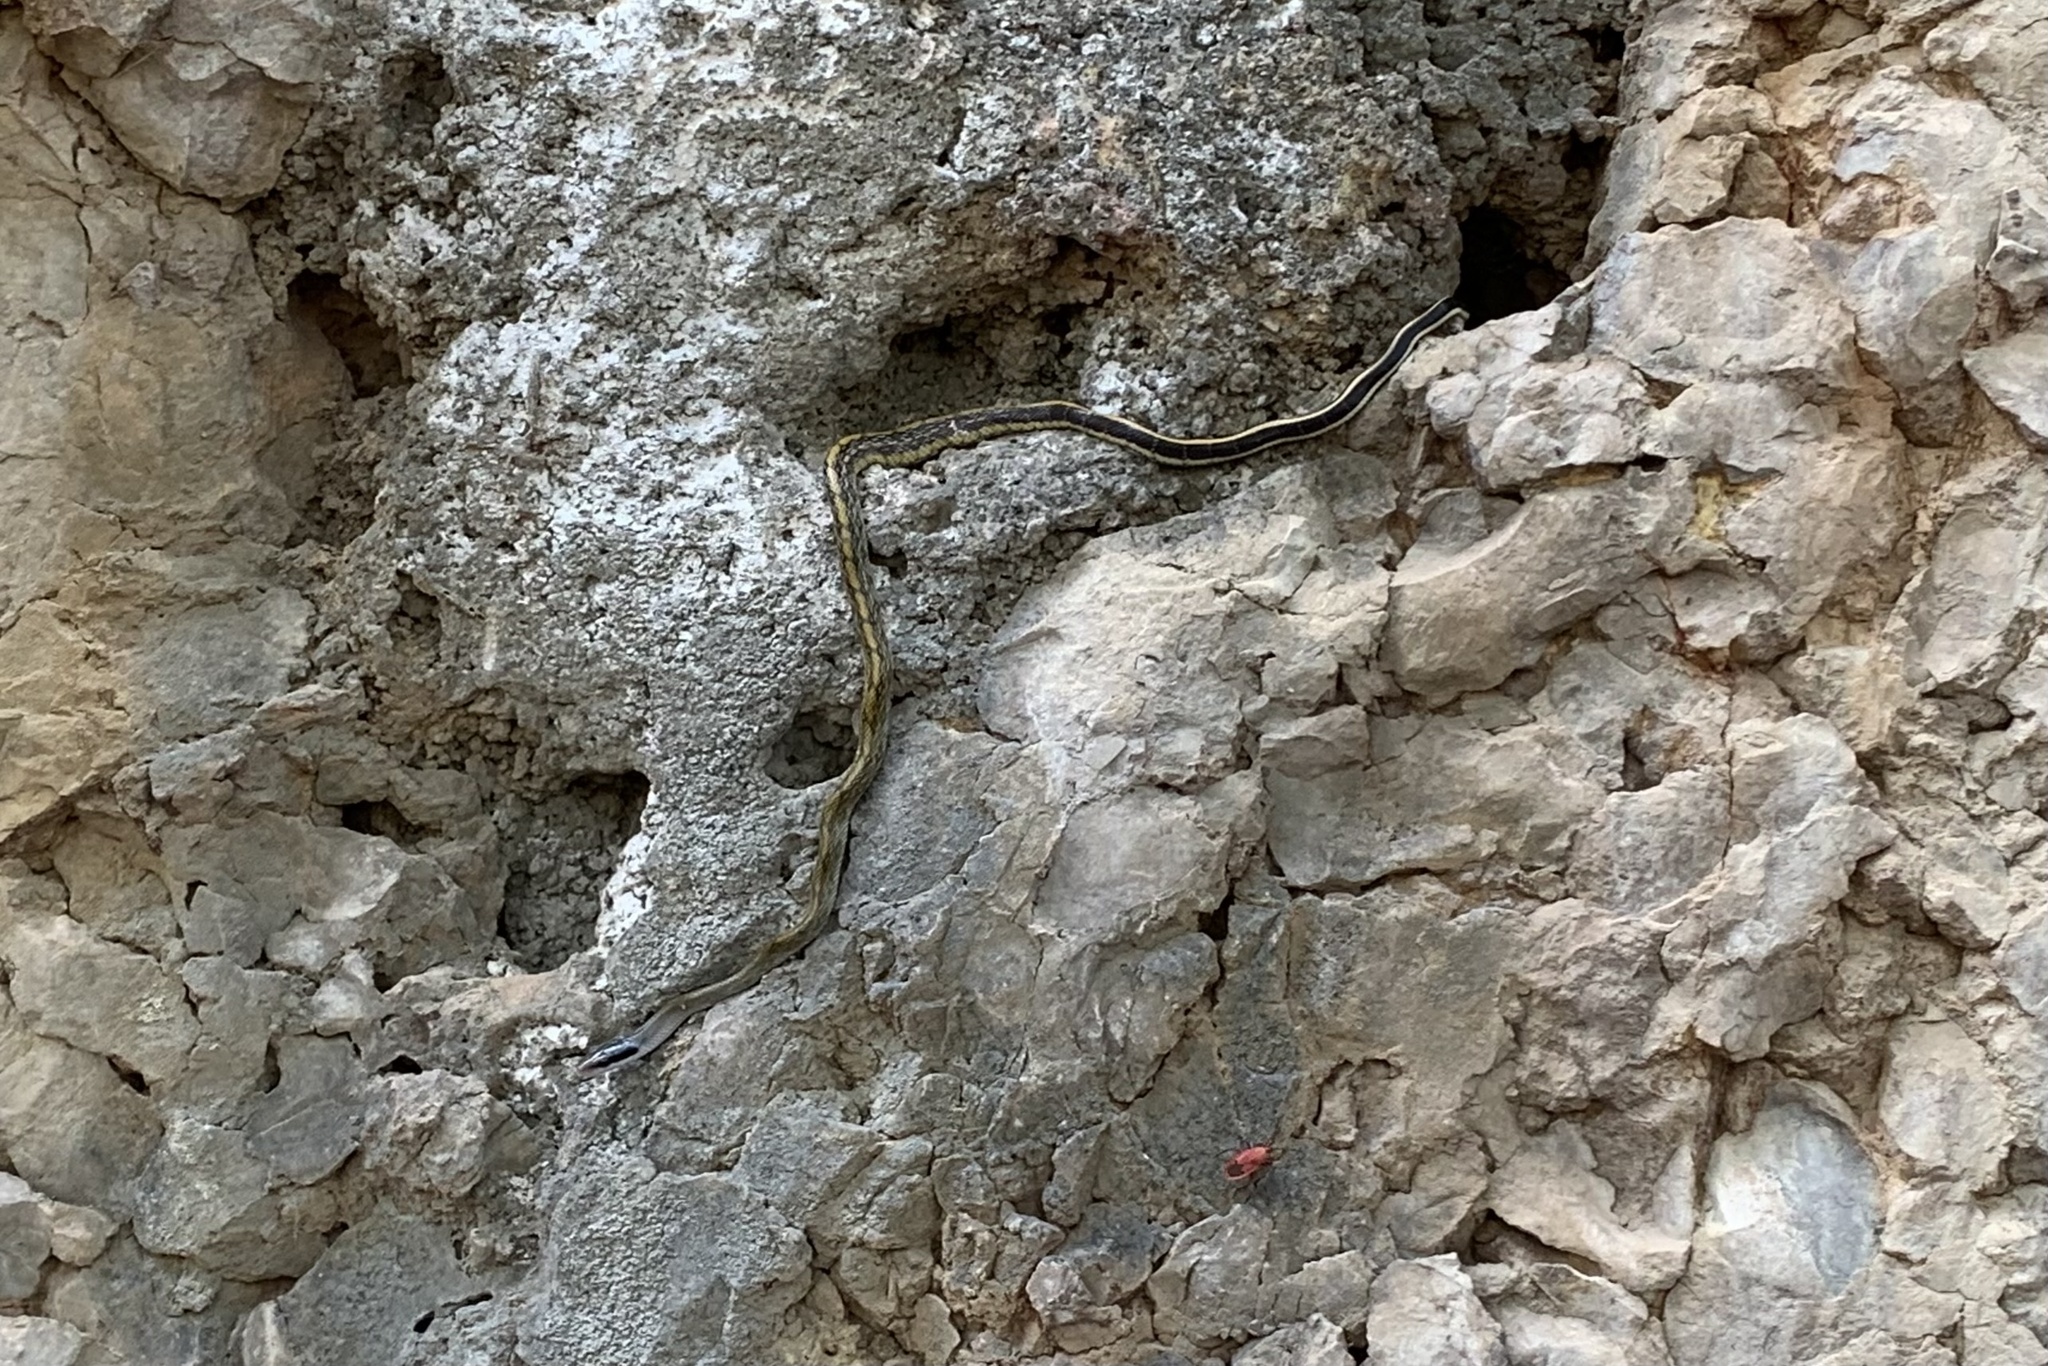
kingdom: Animalia
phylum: Chordata
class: Squamata
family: Colubridae
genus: Elaphe
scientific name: Elaphe taeniura
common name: Beauty snake
